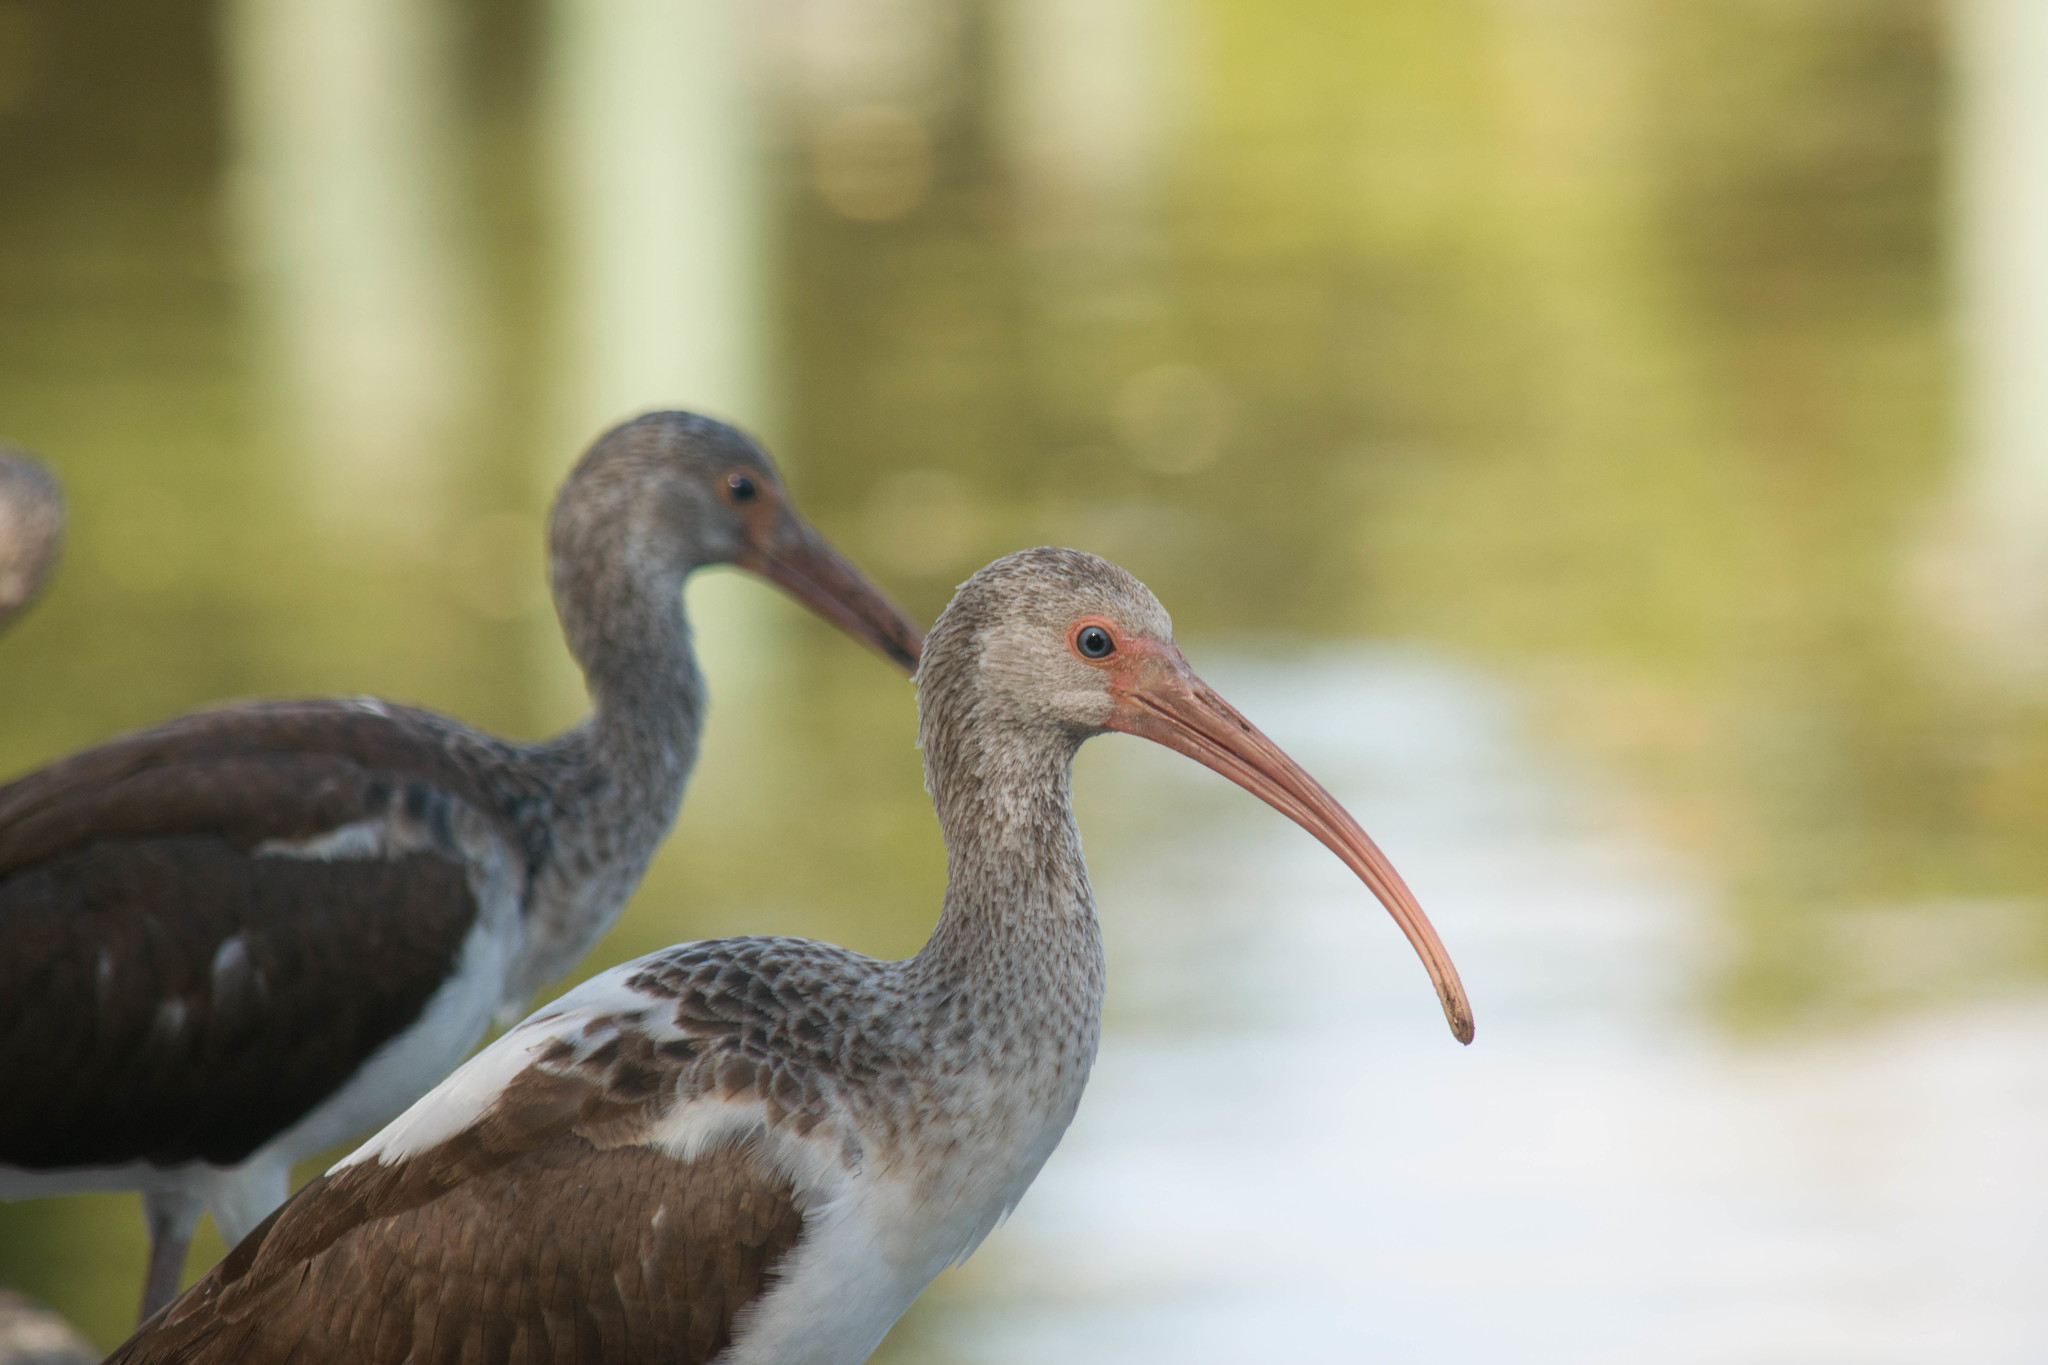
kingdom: Animalia
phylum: Chordata
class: Aves
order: Pelecaniformes
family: Threskiornithidae
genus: Eudocimus
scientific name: Eudocimus albus
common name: White ibis
